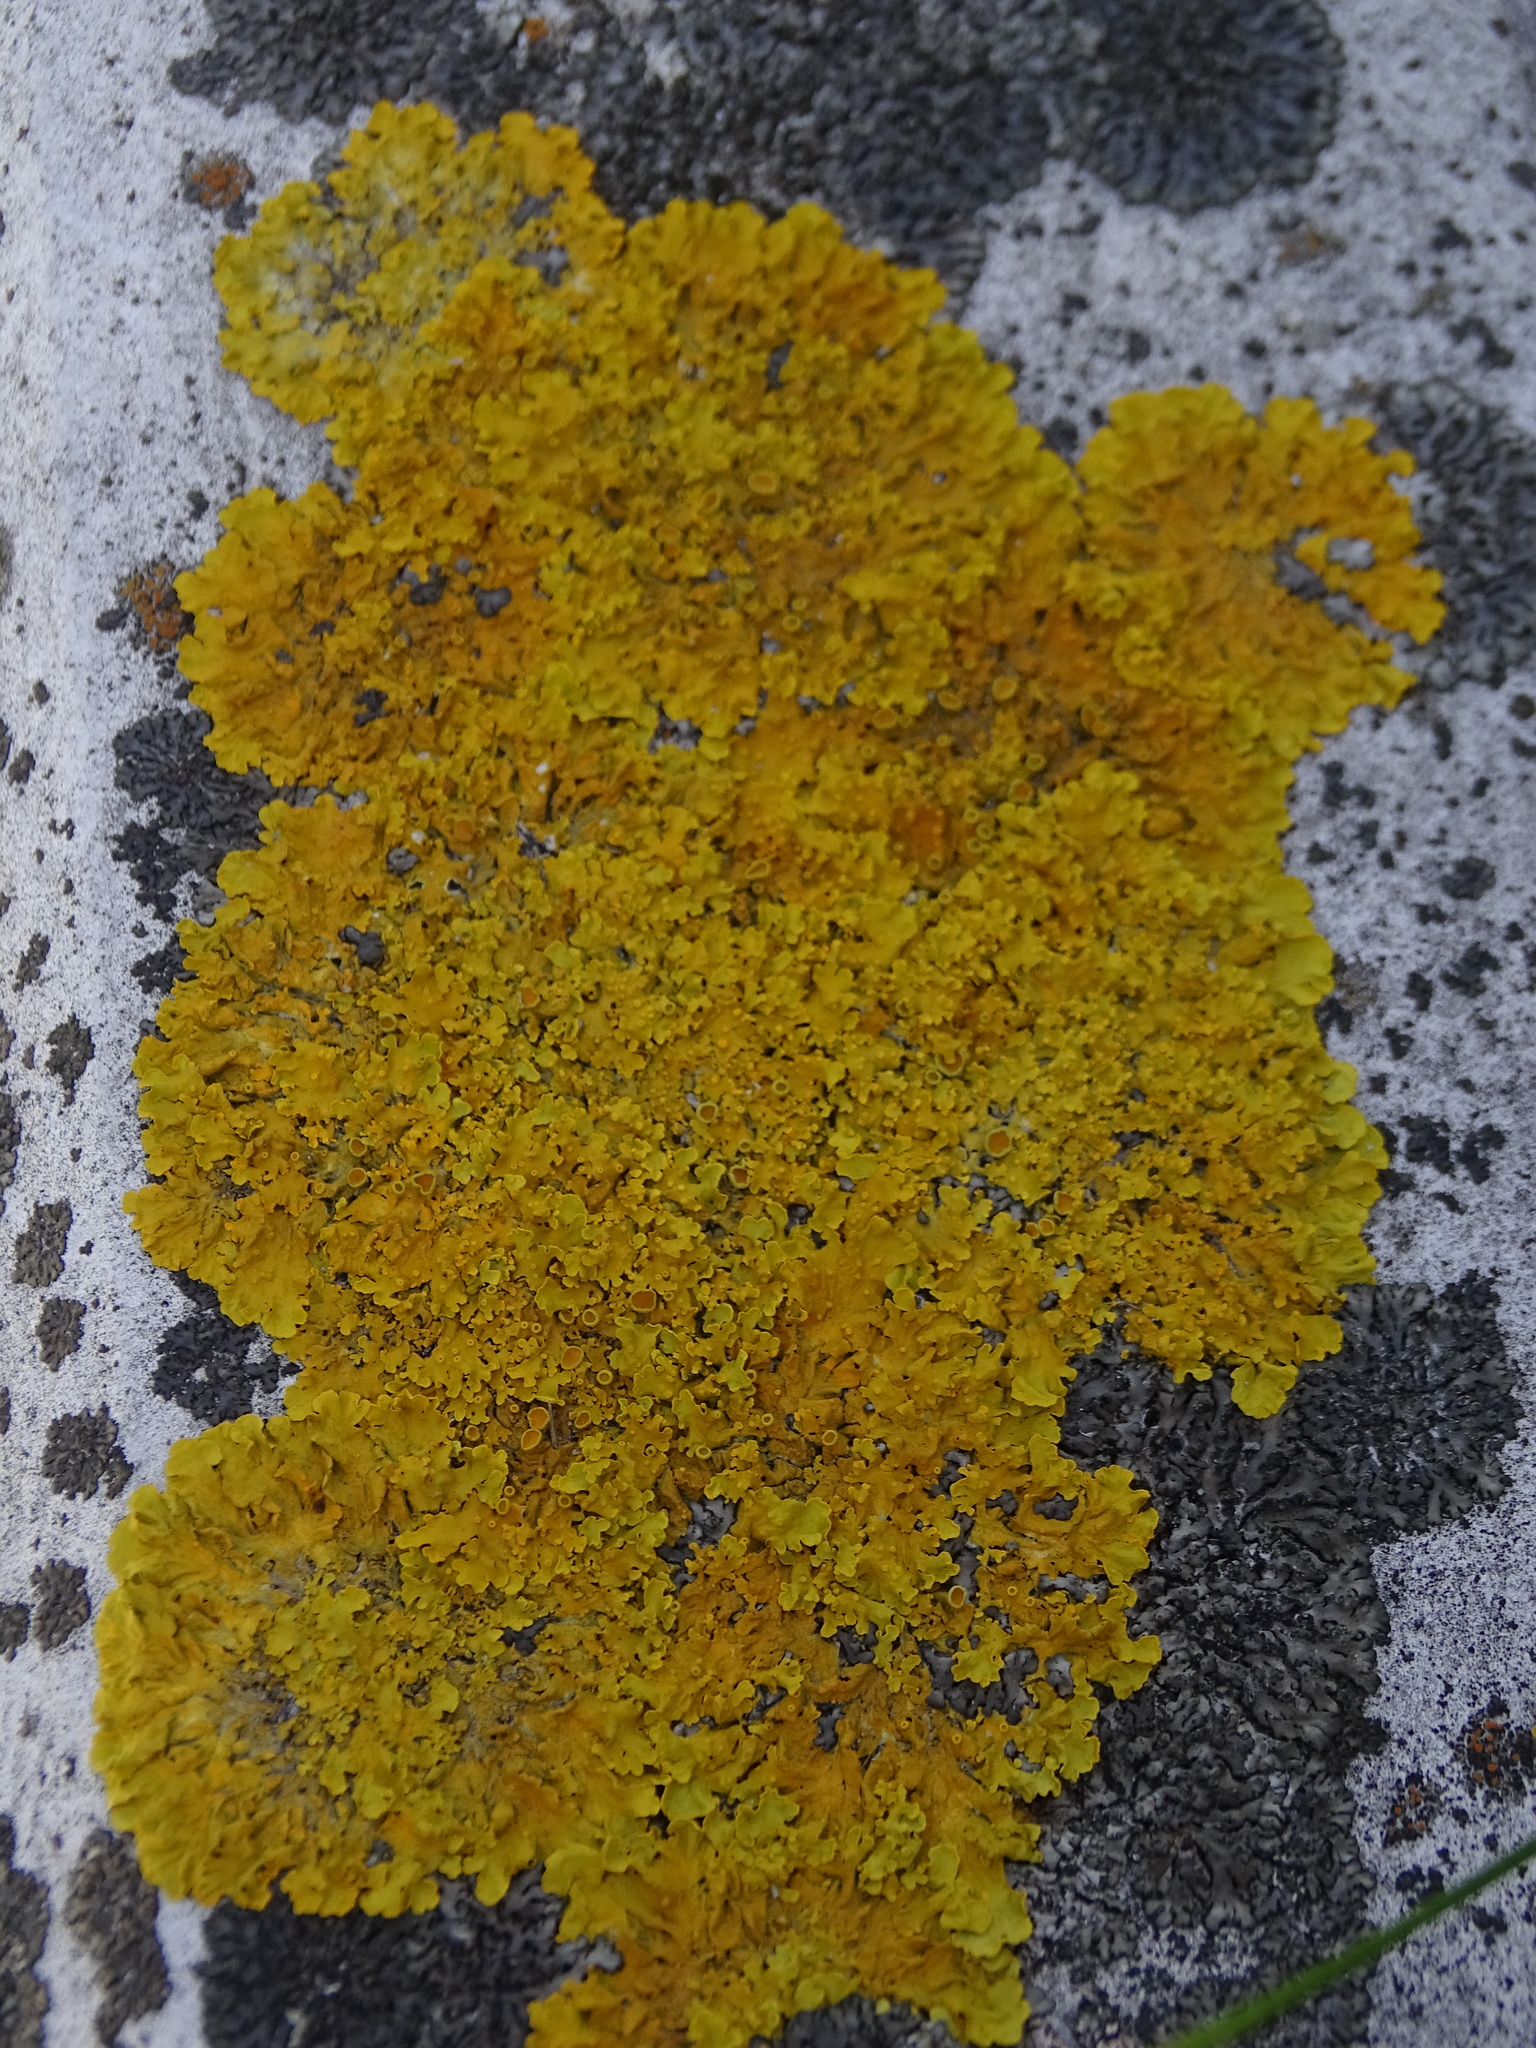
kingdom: Fungi
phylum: Ascomycota
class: Lecanoromycetes
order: Teloschistales
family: Teloschistaceae
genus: Xanthoria
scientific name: Xanthoria parietina
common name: Common orange lichen
